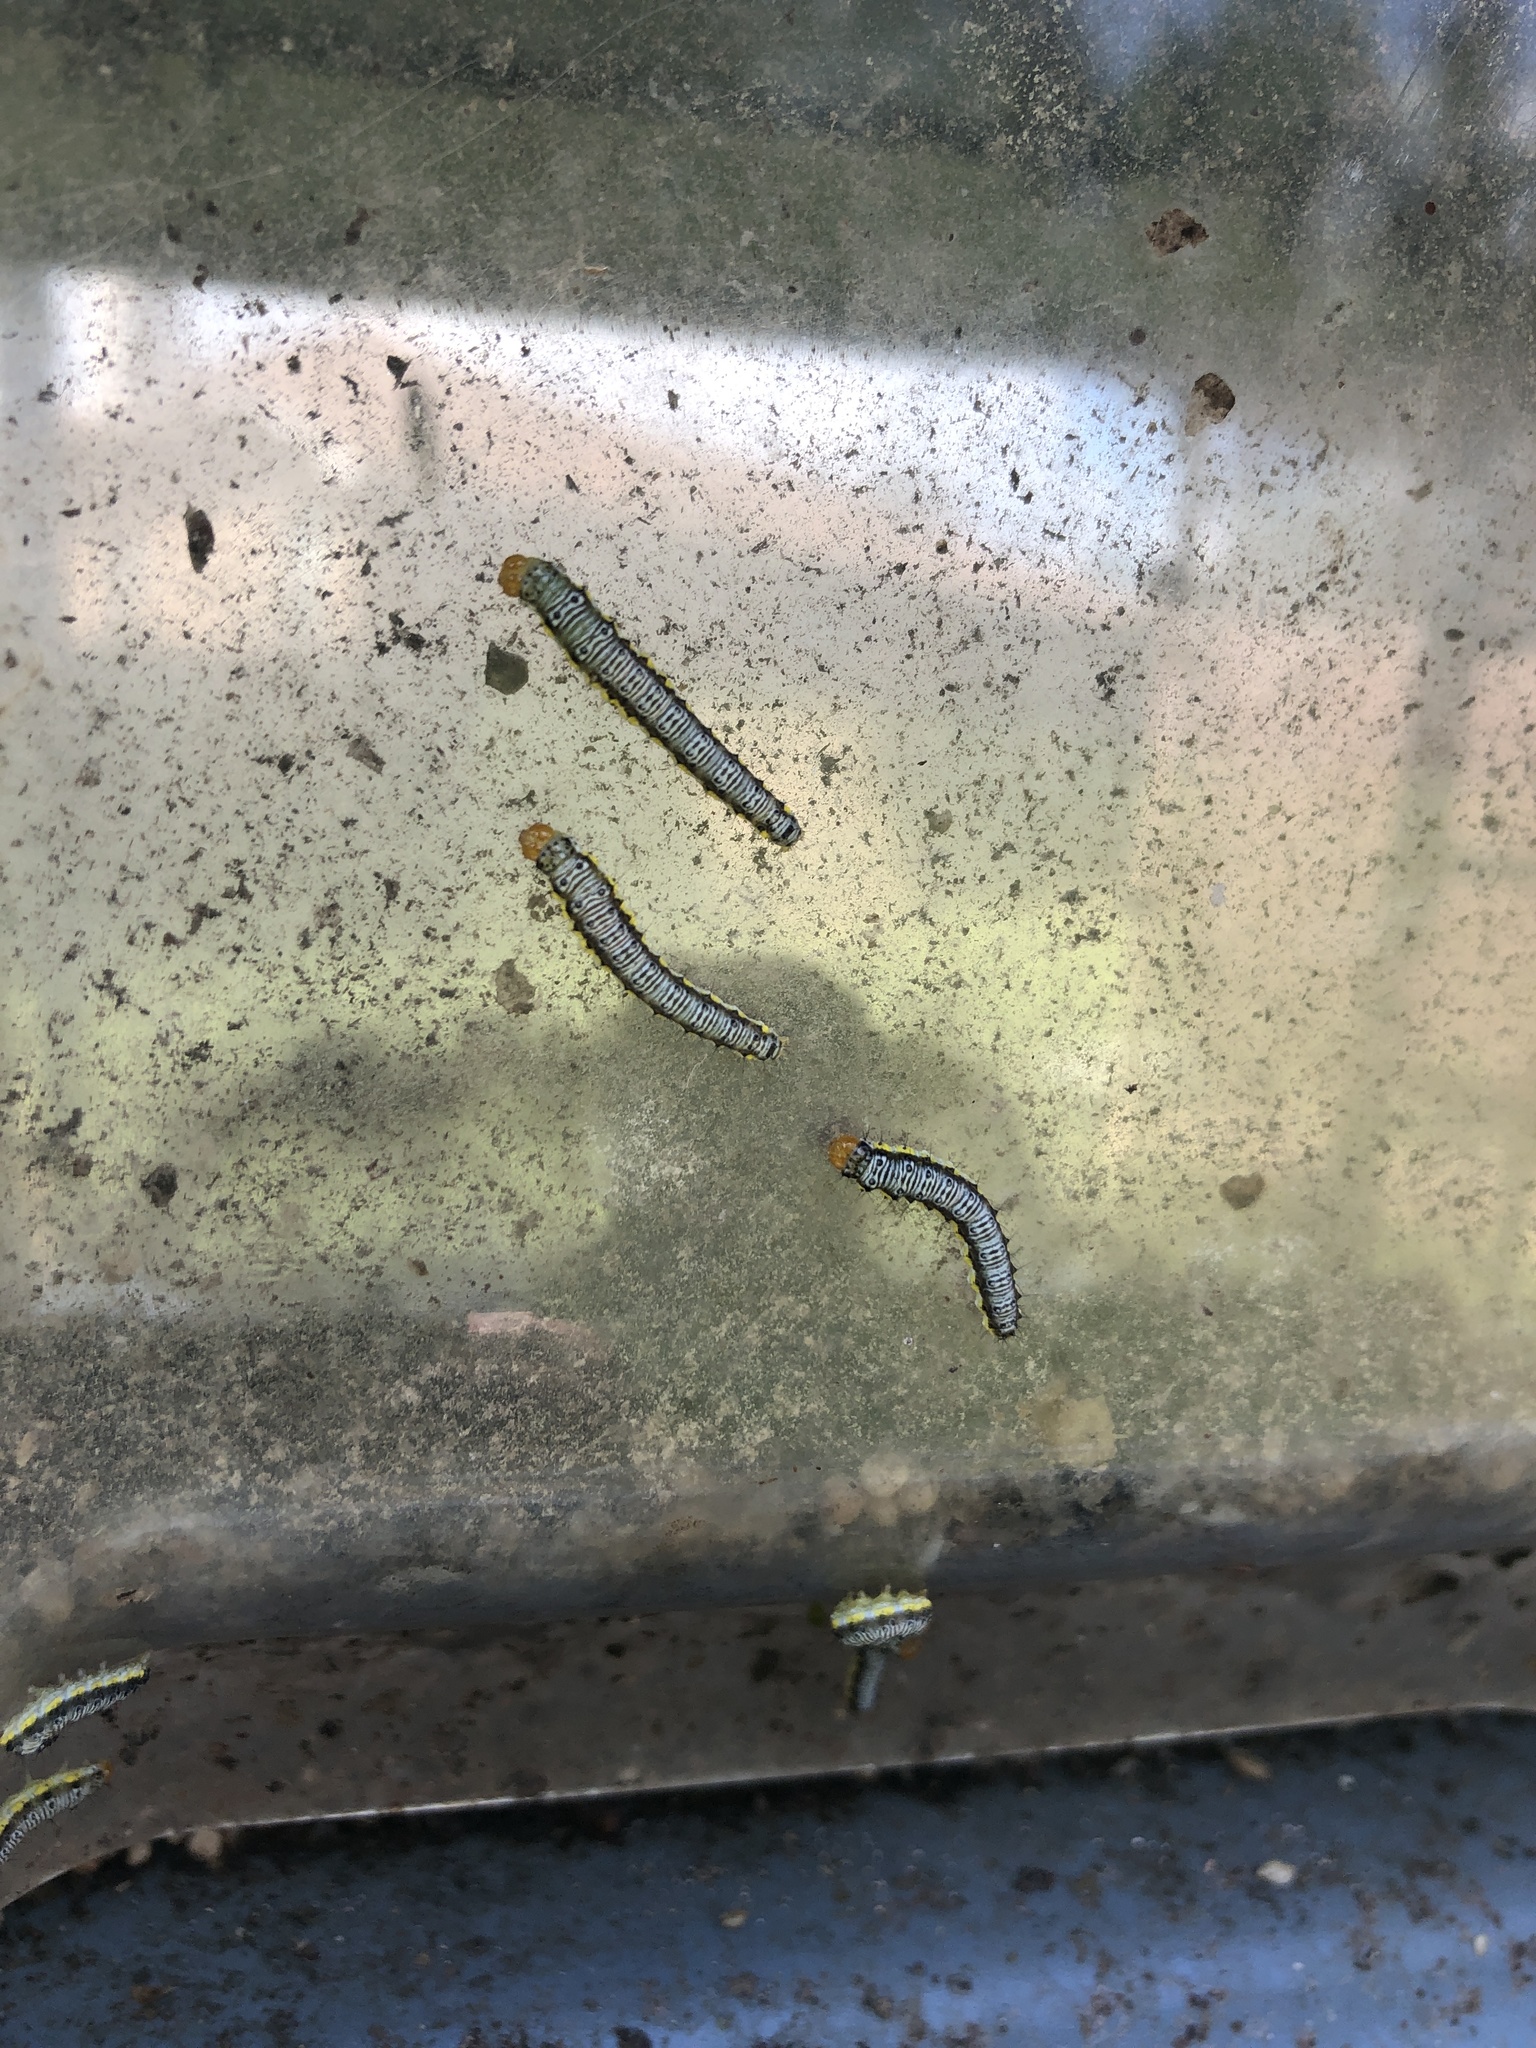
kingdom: Animalia
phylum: Arthropoda
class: Insecta
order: Lepidoptera
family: Crambidae
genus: Evergestis
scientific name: Evergestis rimosalis
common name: Cross-striped cabbageworm moth
